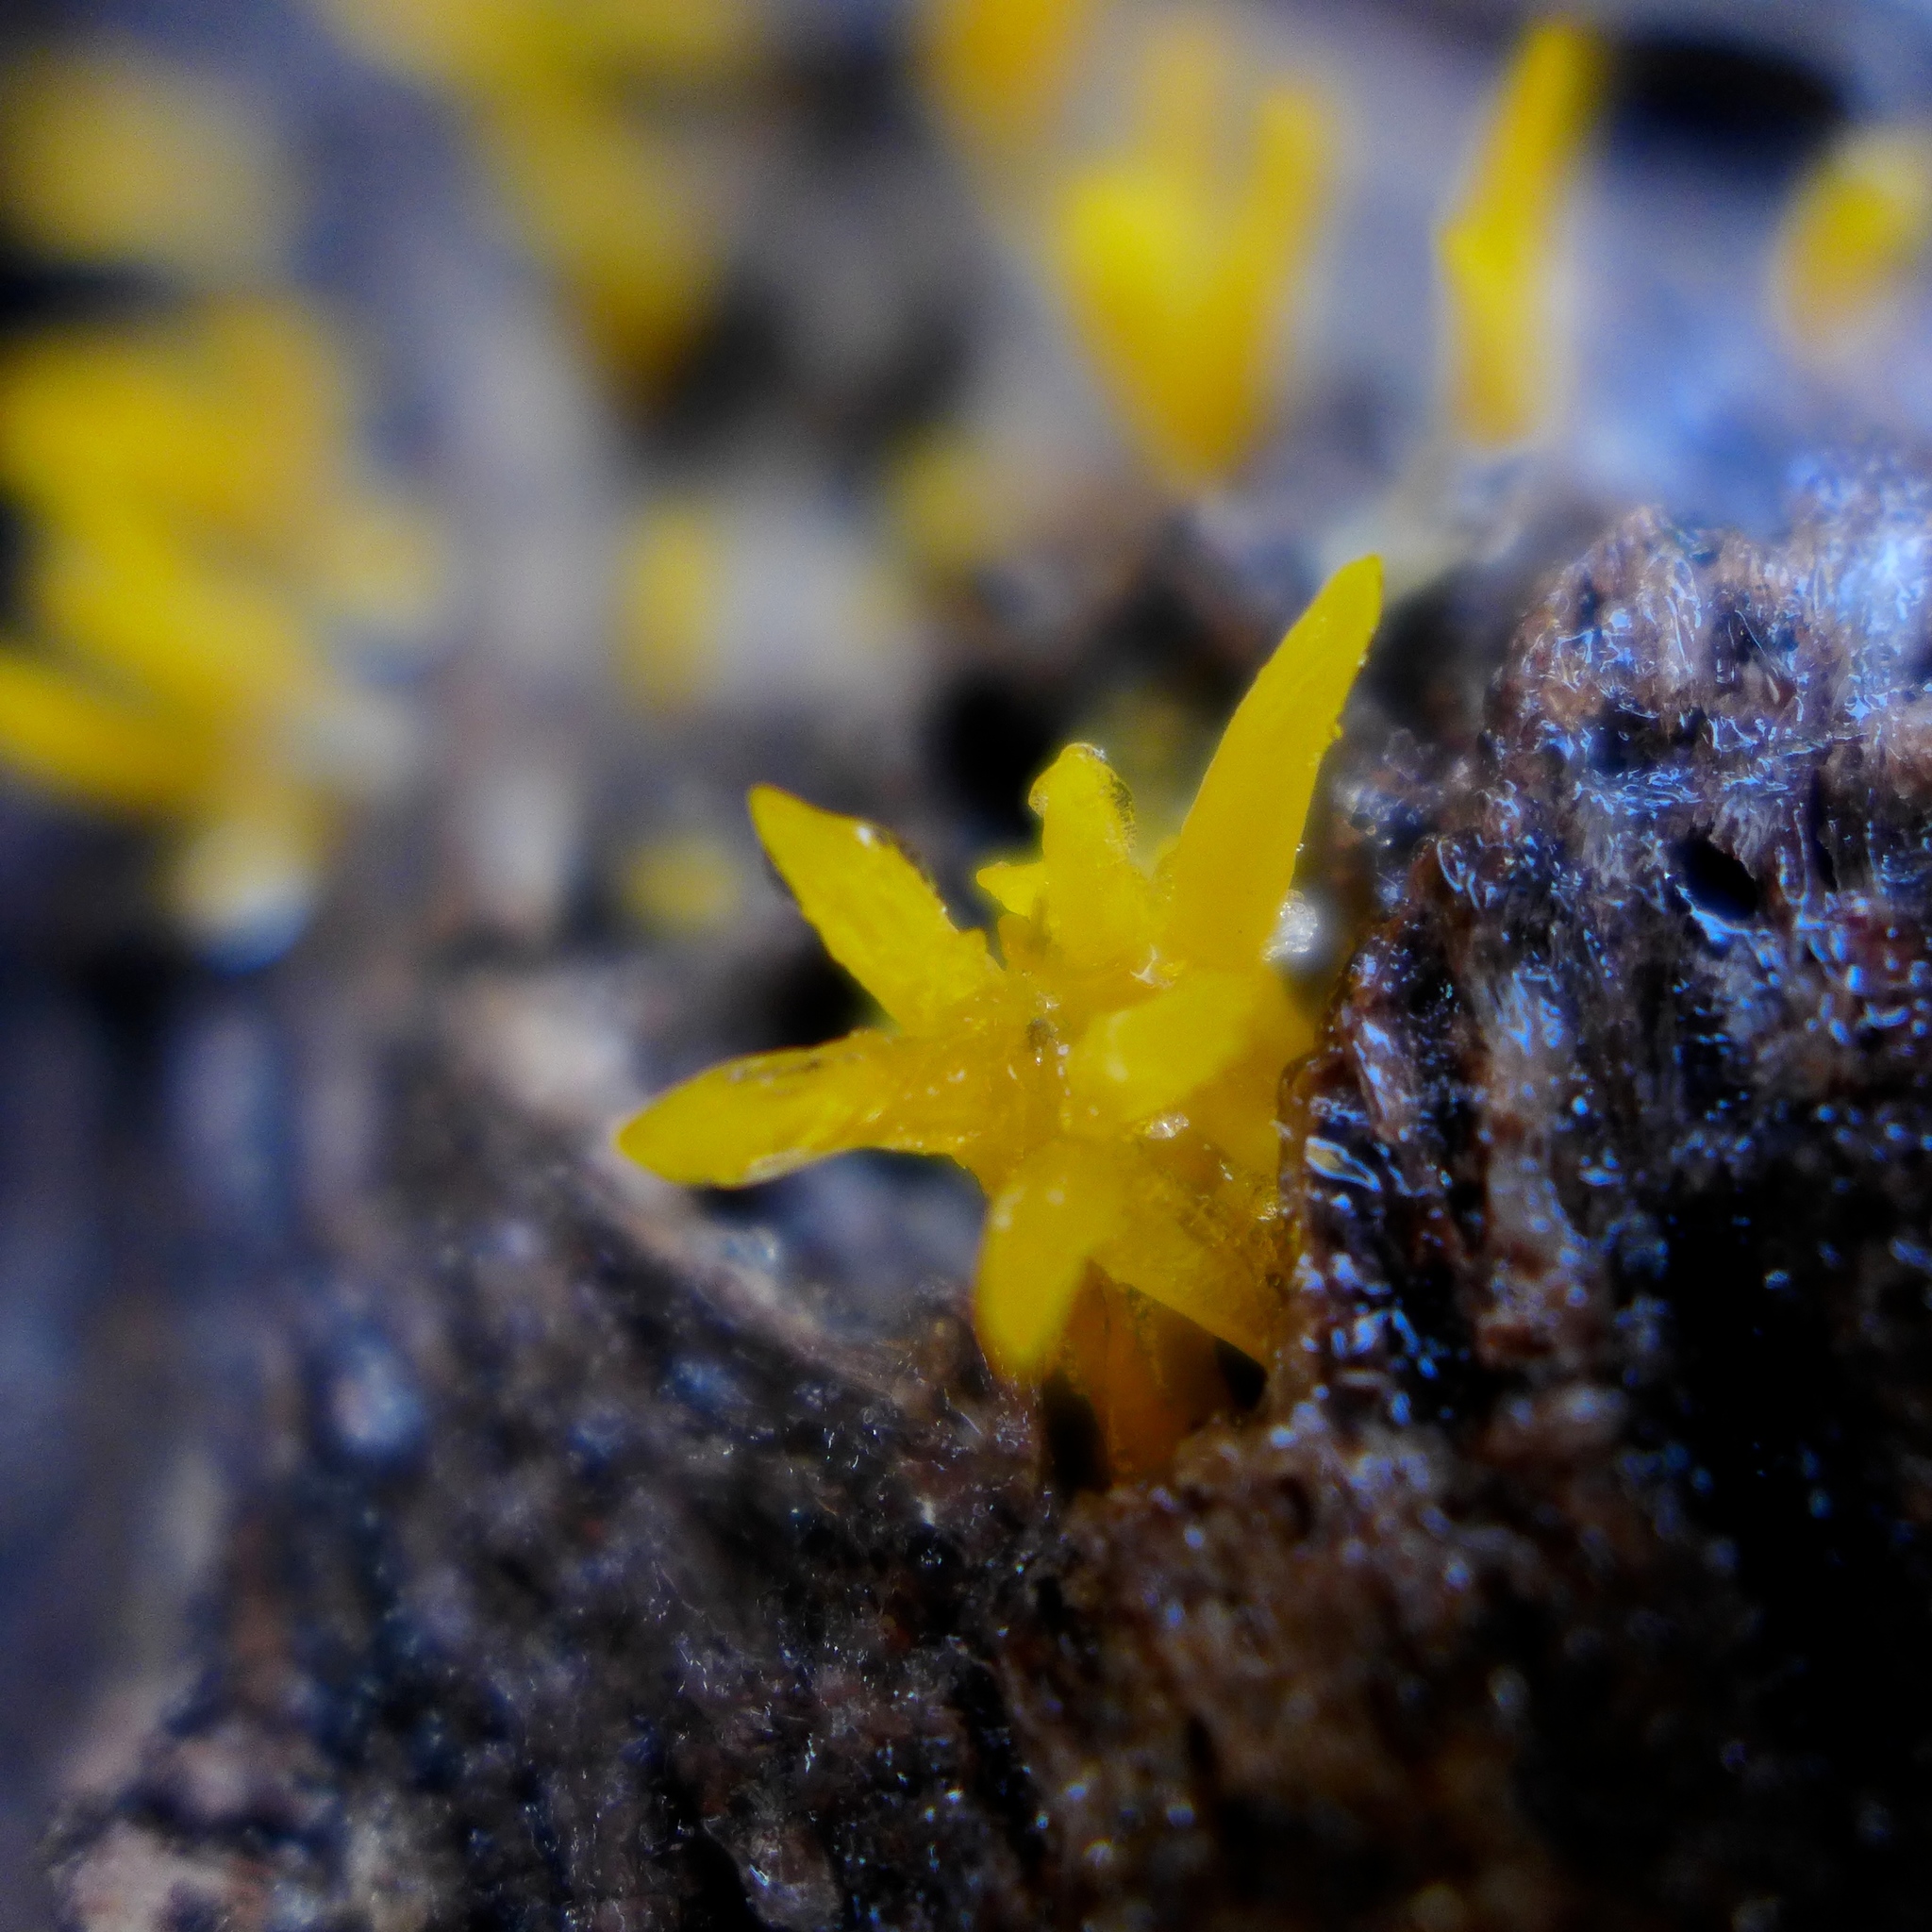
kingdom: Fungi
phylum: Basidiomycota
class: Dacrymycetes
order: Dacrymycetales
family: Dacrymycetaceae
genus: Calocera
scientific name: Calocera cornea
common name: Small stagshorn
